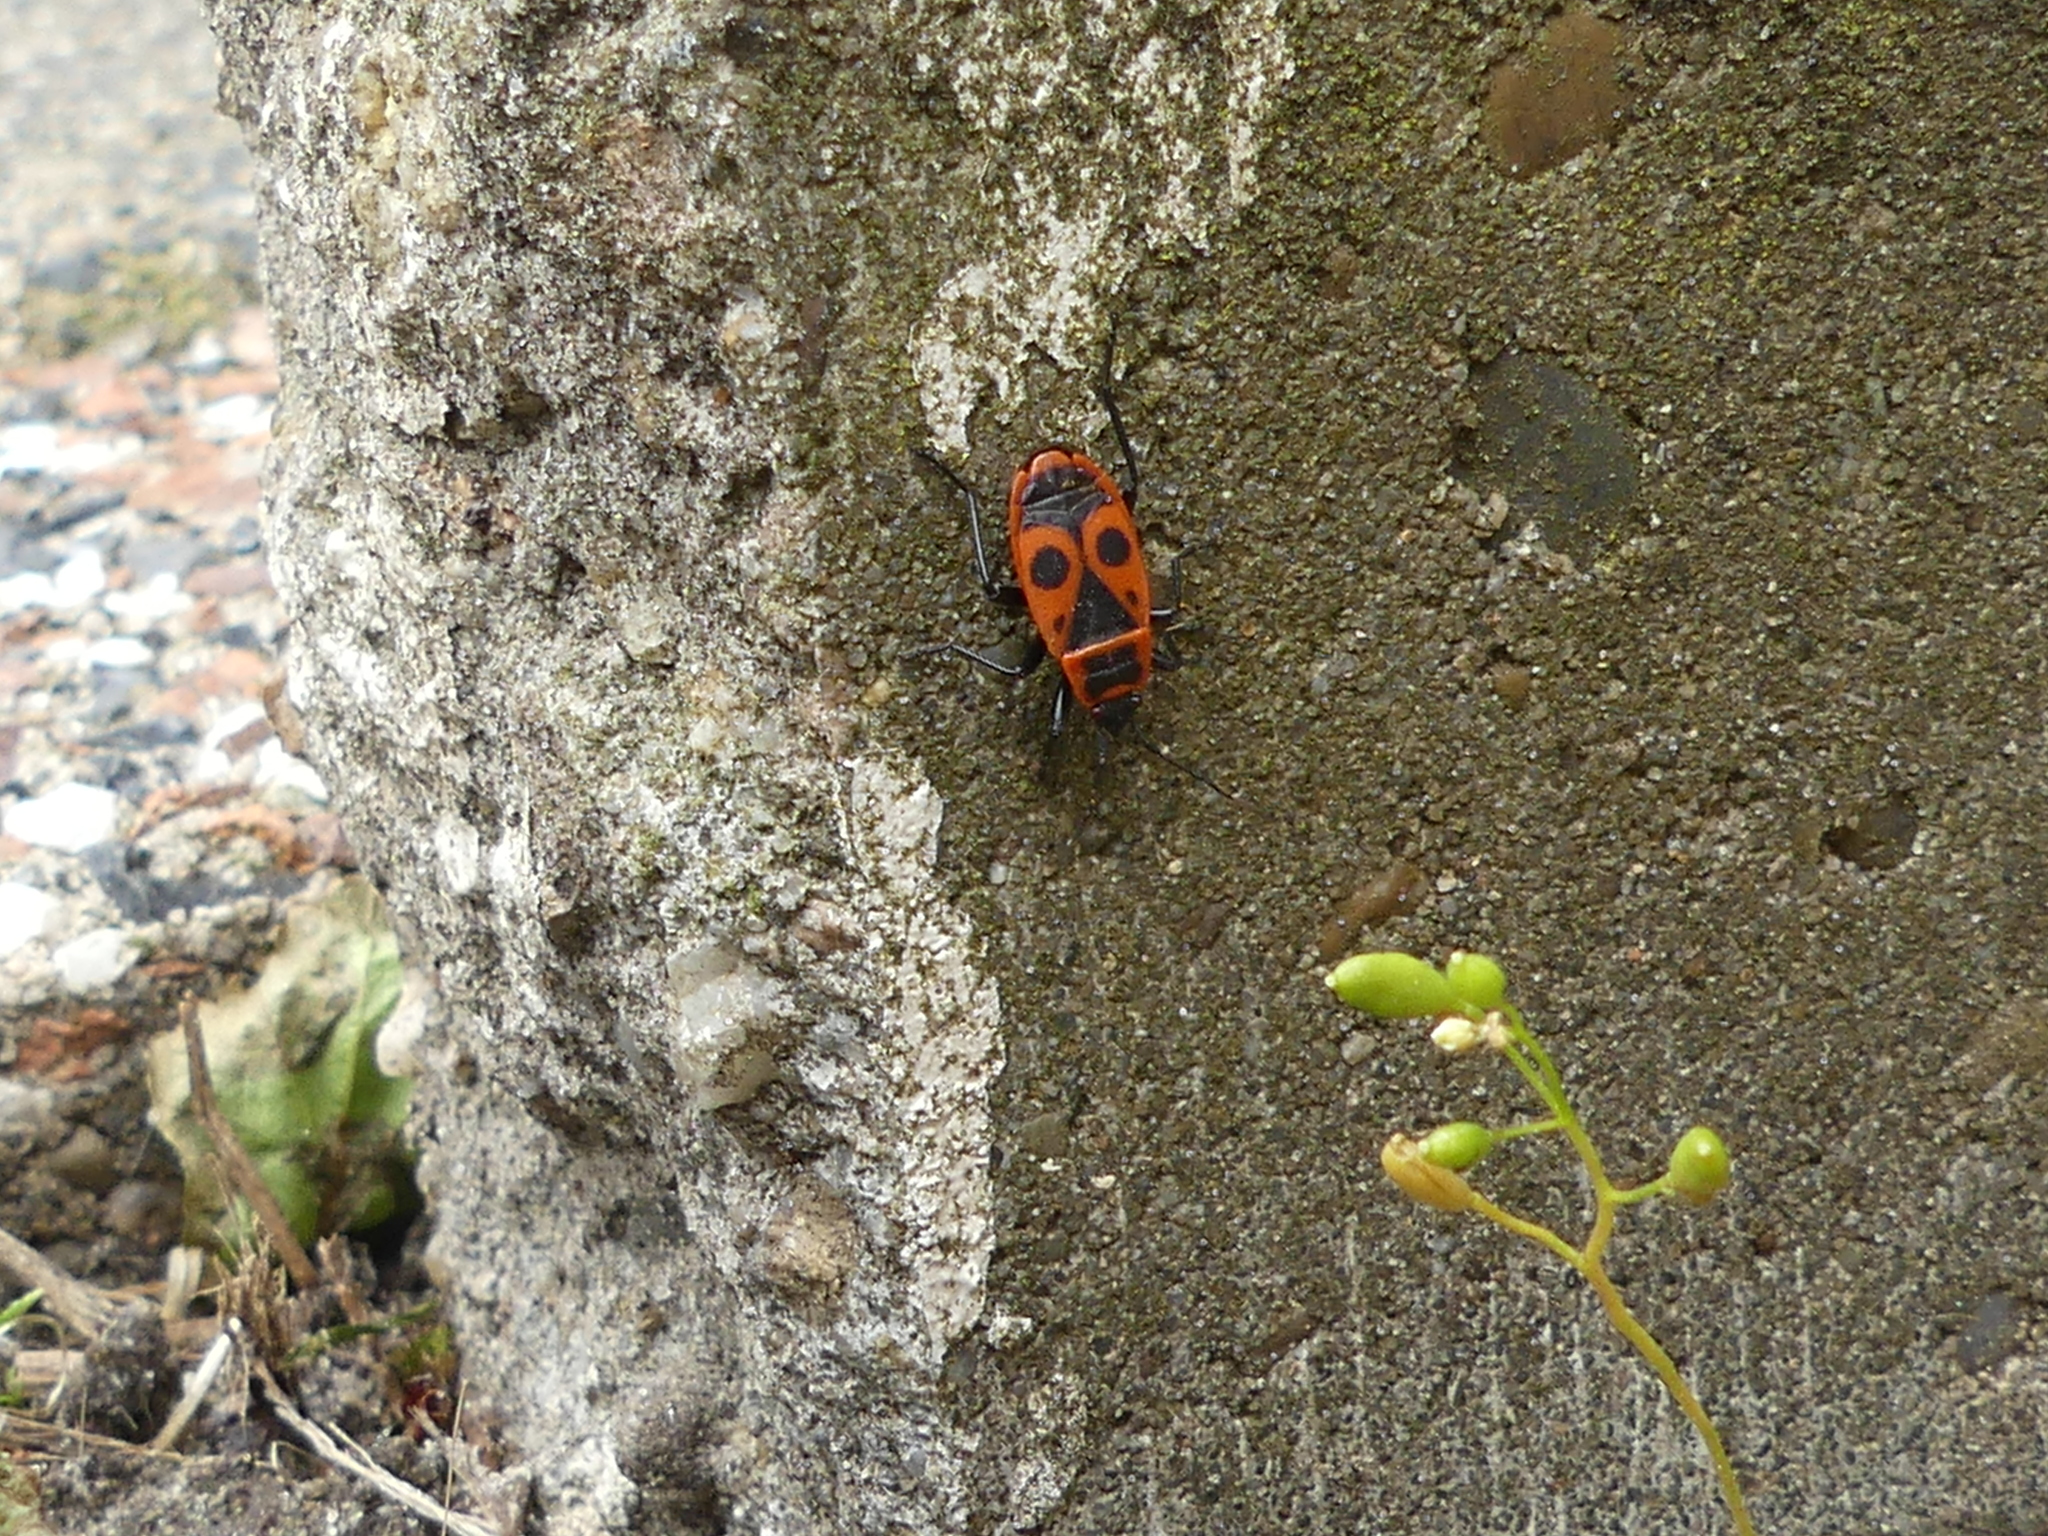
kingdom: Animalia
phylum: Arthropoda
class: Insecta
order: Hemiptera
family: Pyrrhocoridae
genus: Pyrrhocoris
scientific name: Pyrrhocoris apterus
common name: Firebug
